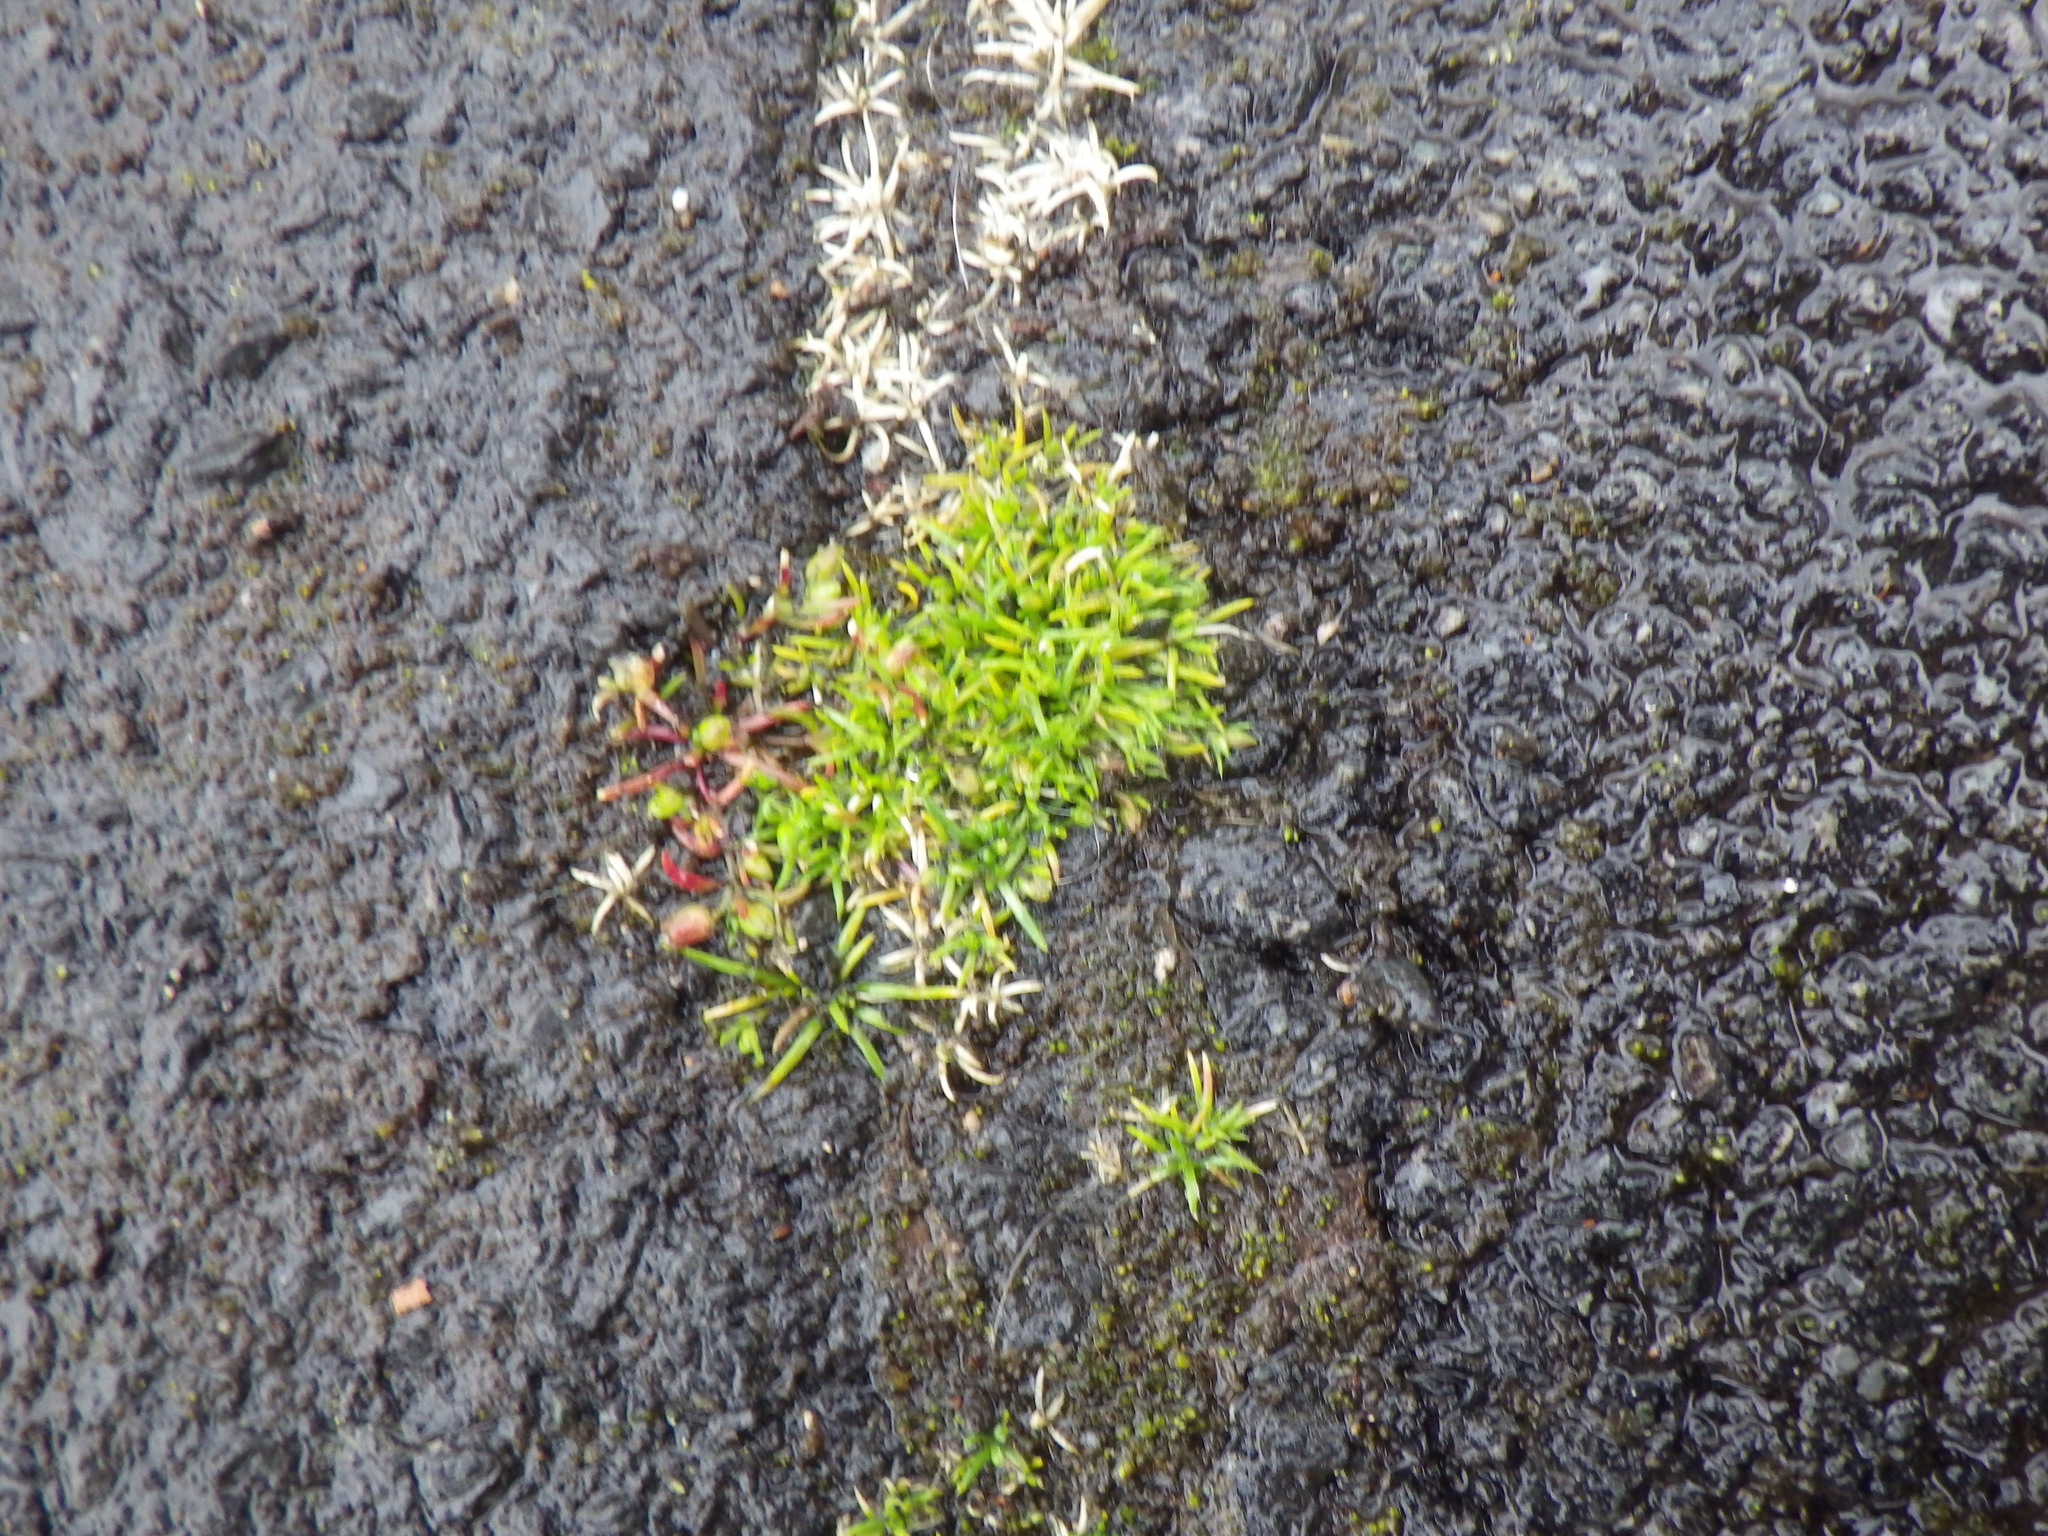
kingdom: Plantae
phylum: Tracheophyta
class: Magnoliopsida
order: Caryophyllales
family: Caryophyllaceae
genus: Sagina
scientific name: Sagina procumbens
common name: Procumbent pearlwort
